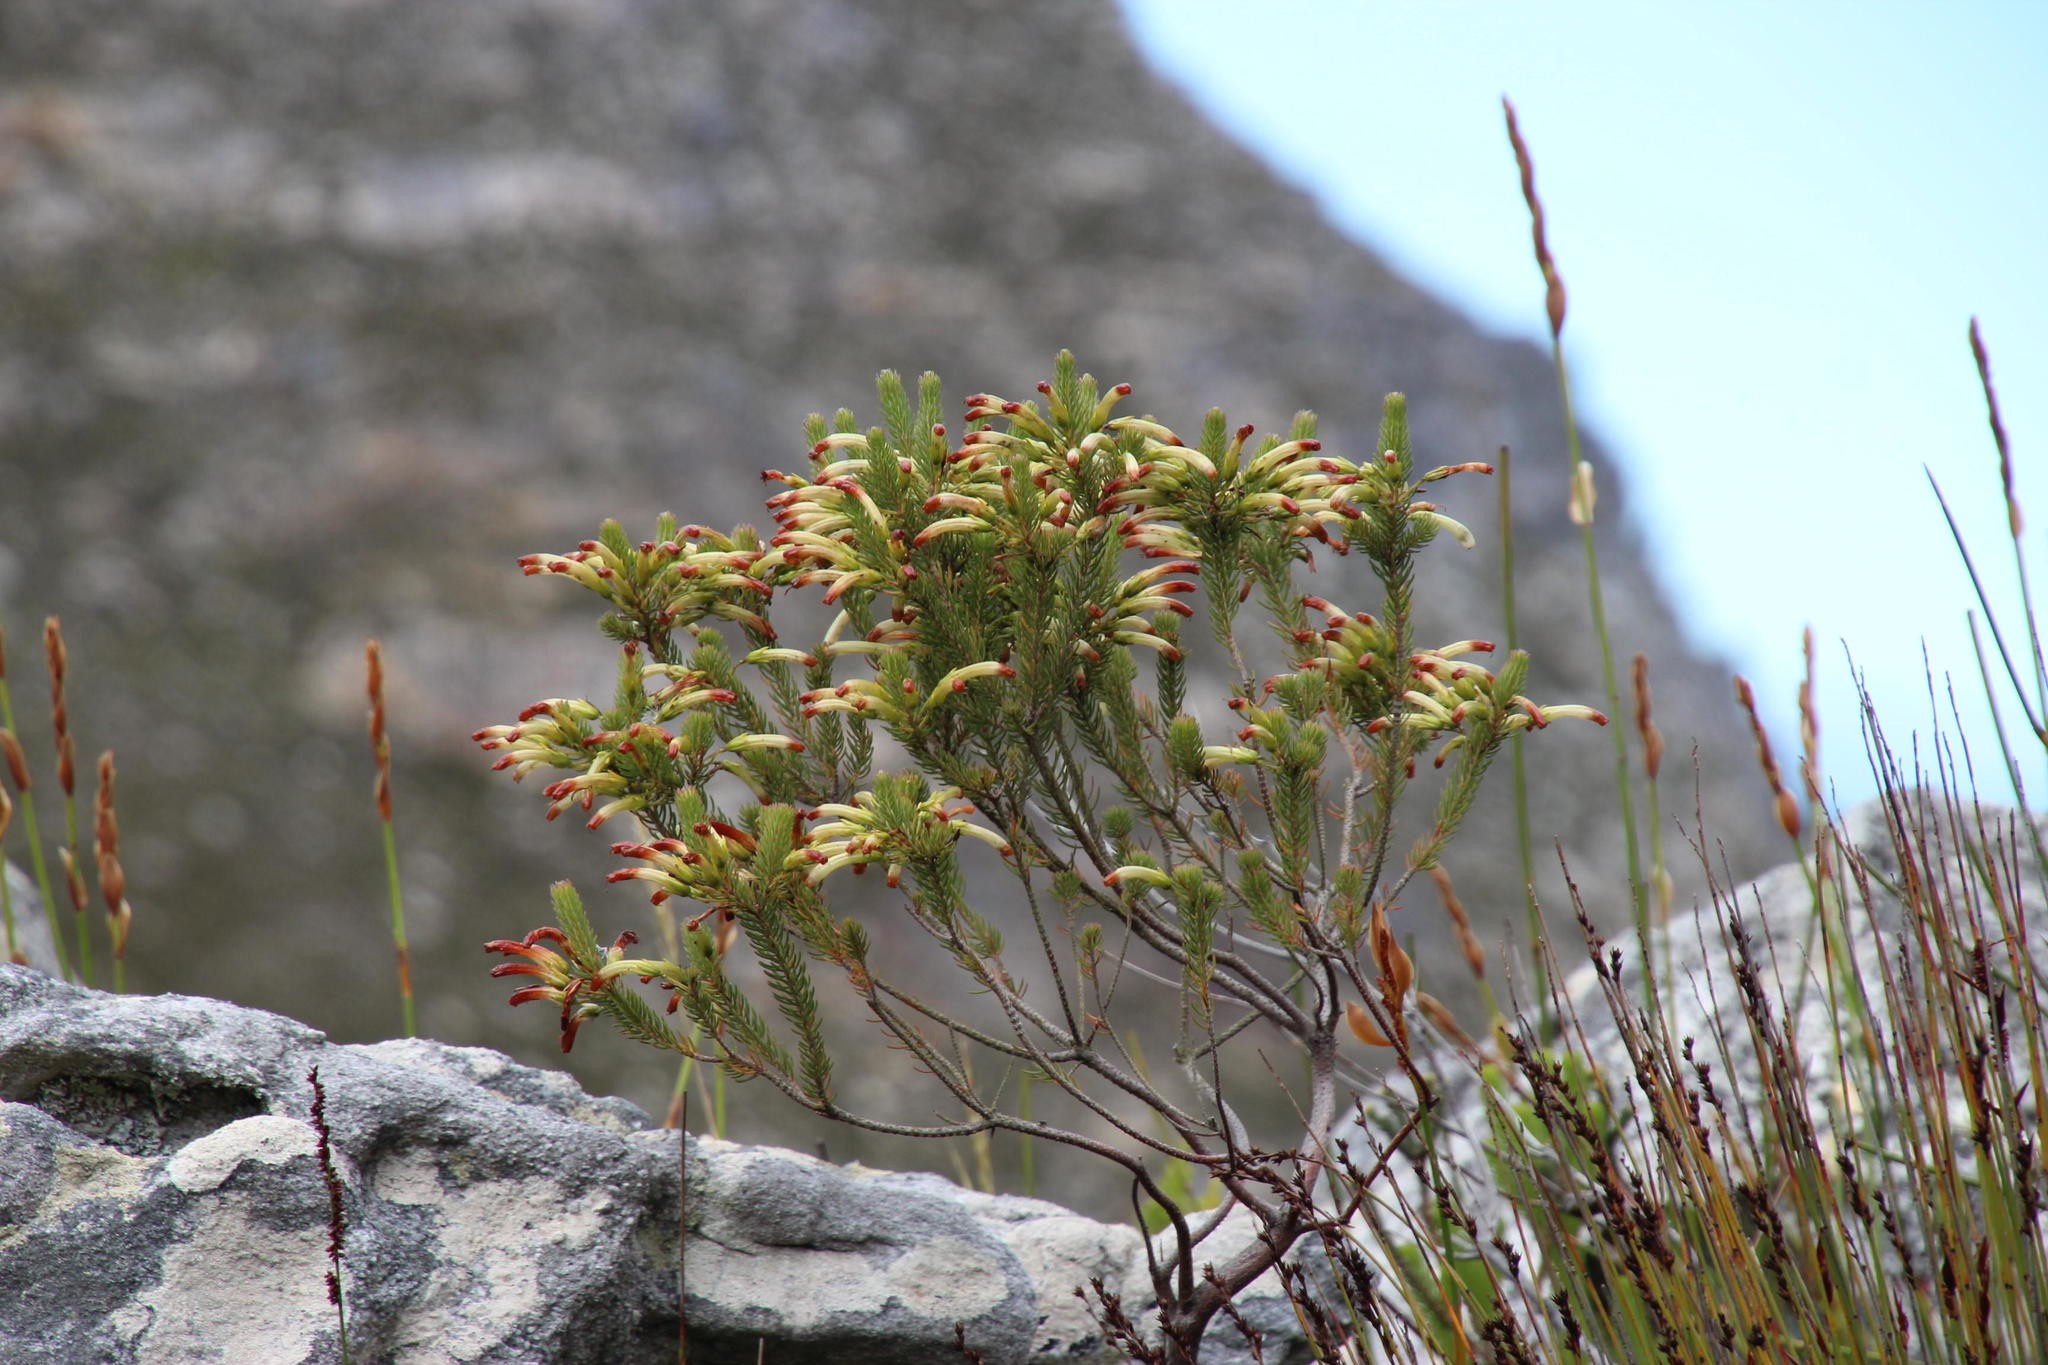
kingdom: Plantae
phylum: Tracheophyta
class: Magnoliopsida
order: Ericales
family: Ericaceae
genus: Erica
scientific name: Erica thomae
